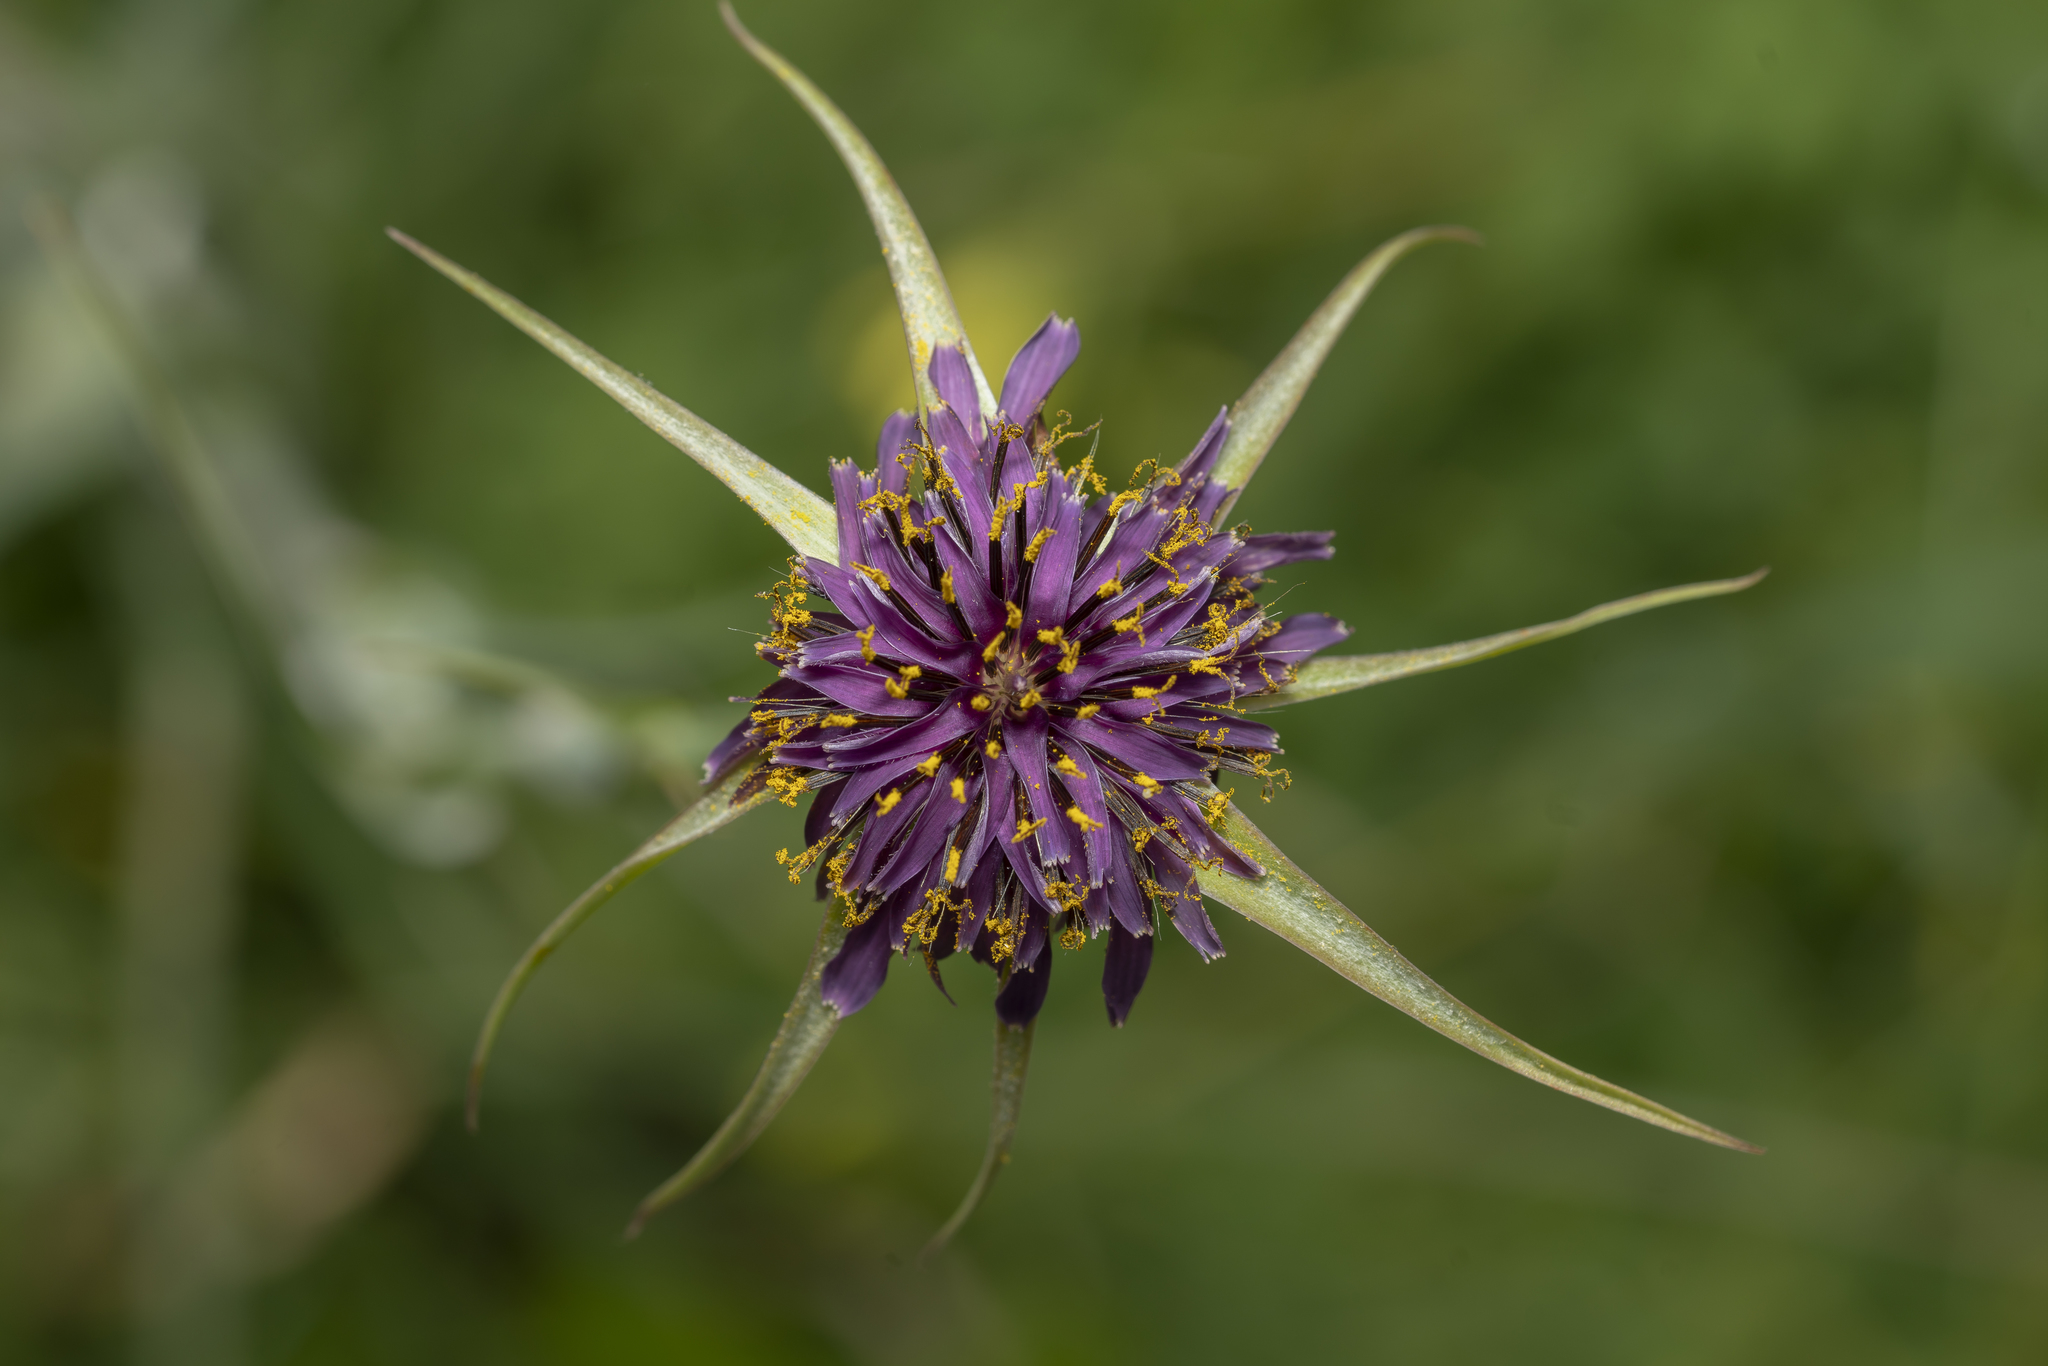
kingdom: Plantae
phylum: Tracheophyta
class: Magnoliopsida
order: Asterales
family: Asteraceae
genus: Tragopogon
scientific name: Tragopogon coelesyriacus
